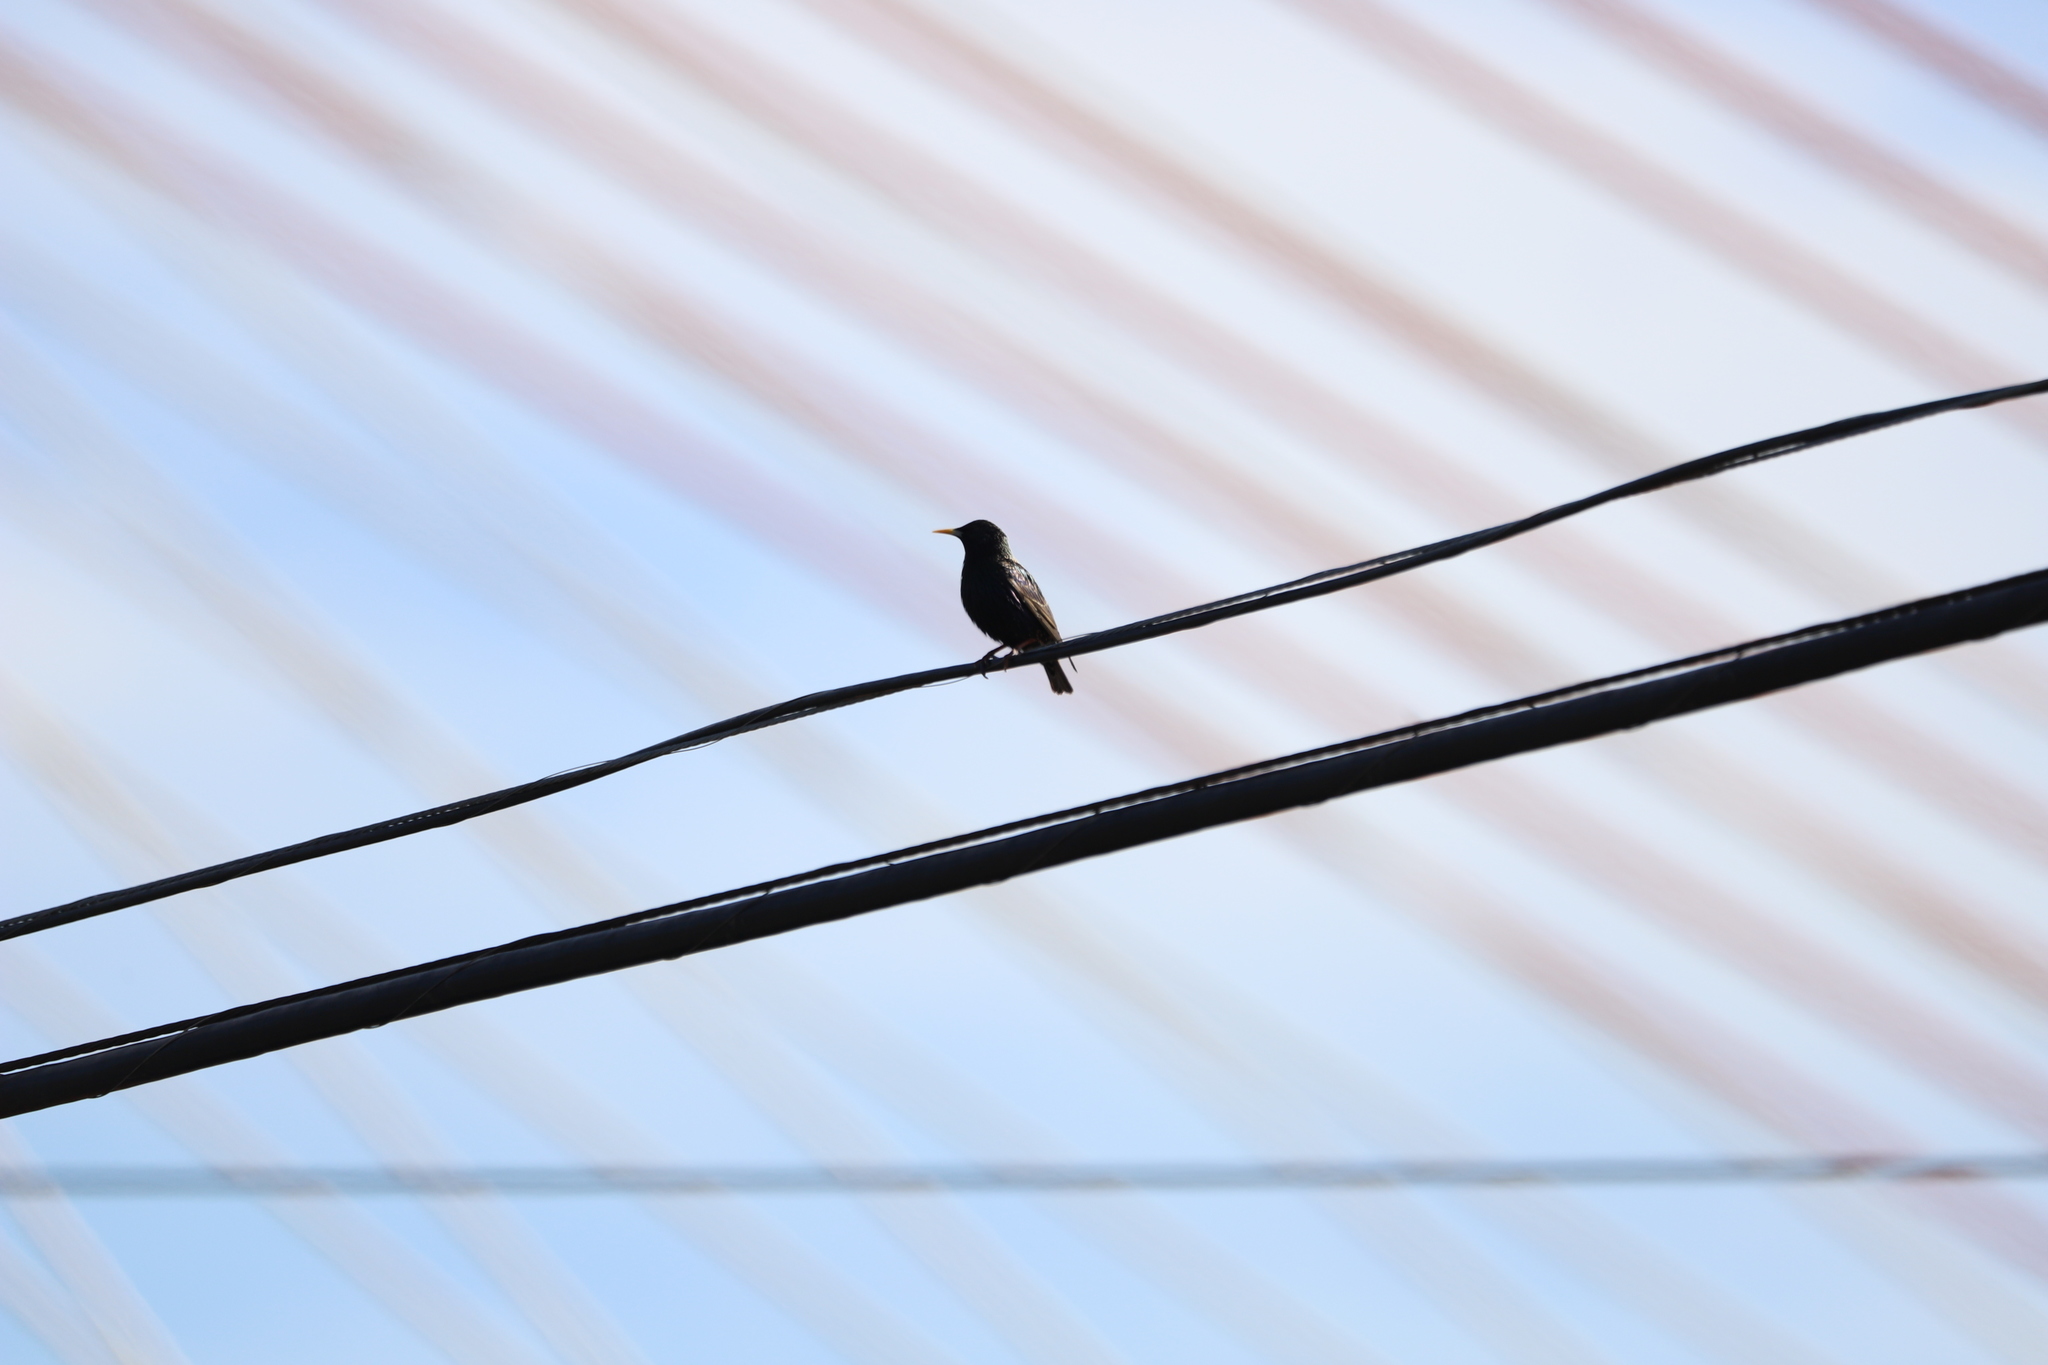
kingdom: Animalia
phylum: Chordata
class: Aves
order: Passeriformes
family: Sturnidae
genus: Sturnus
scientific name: Sturnus vulgaris
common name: Common starling
